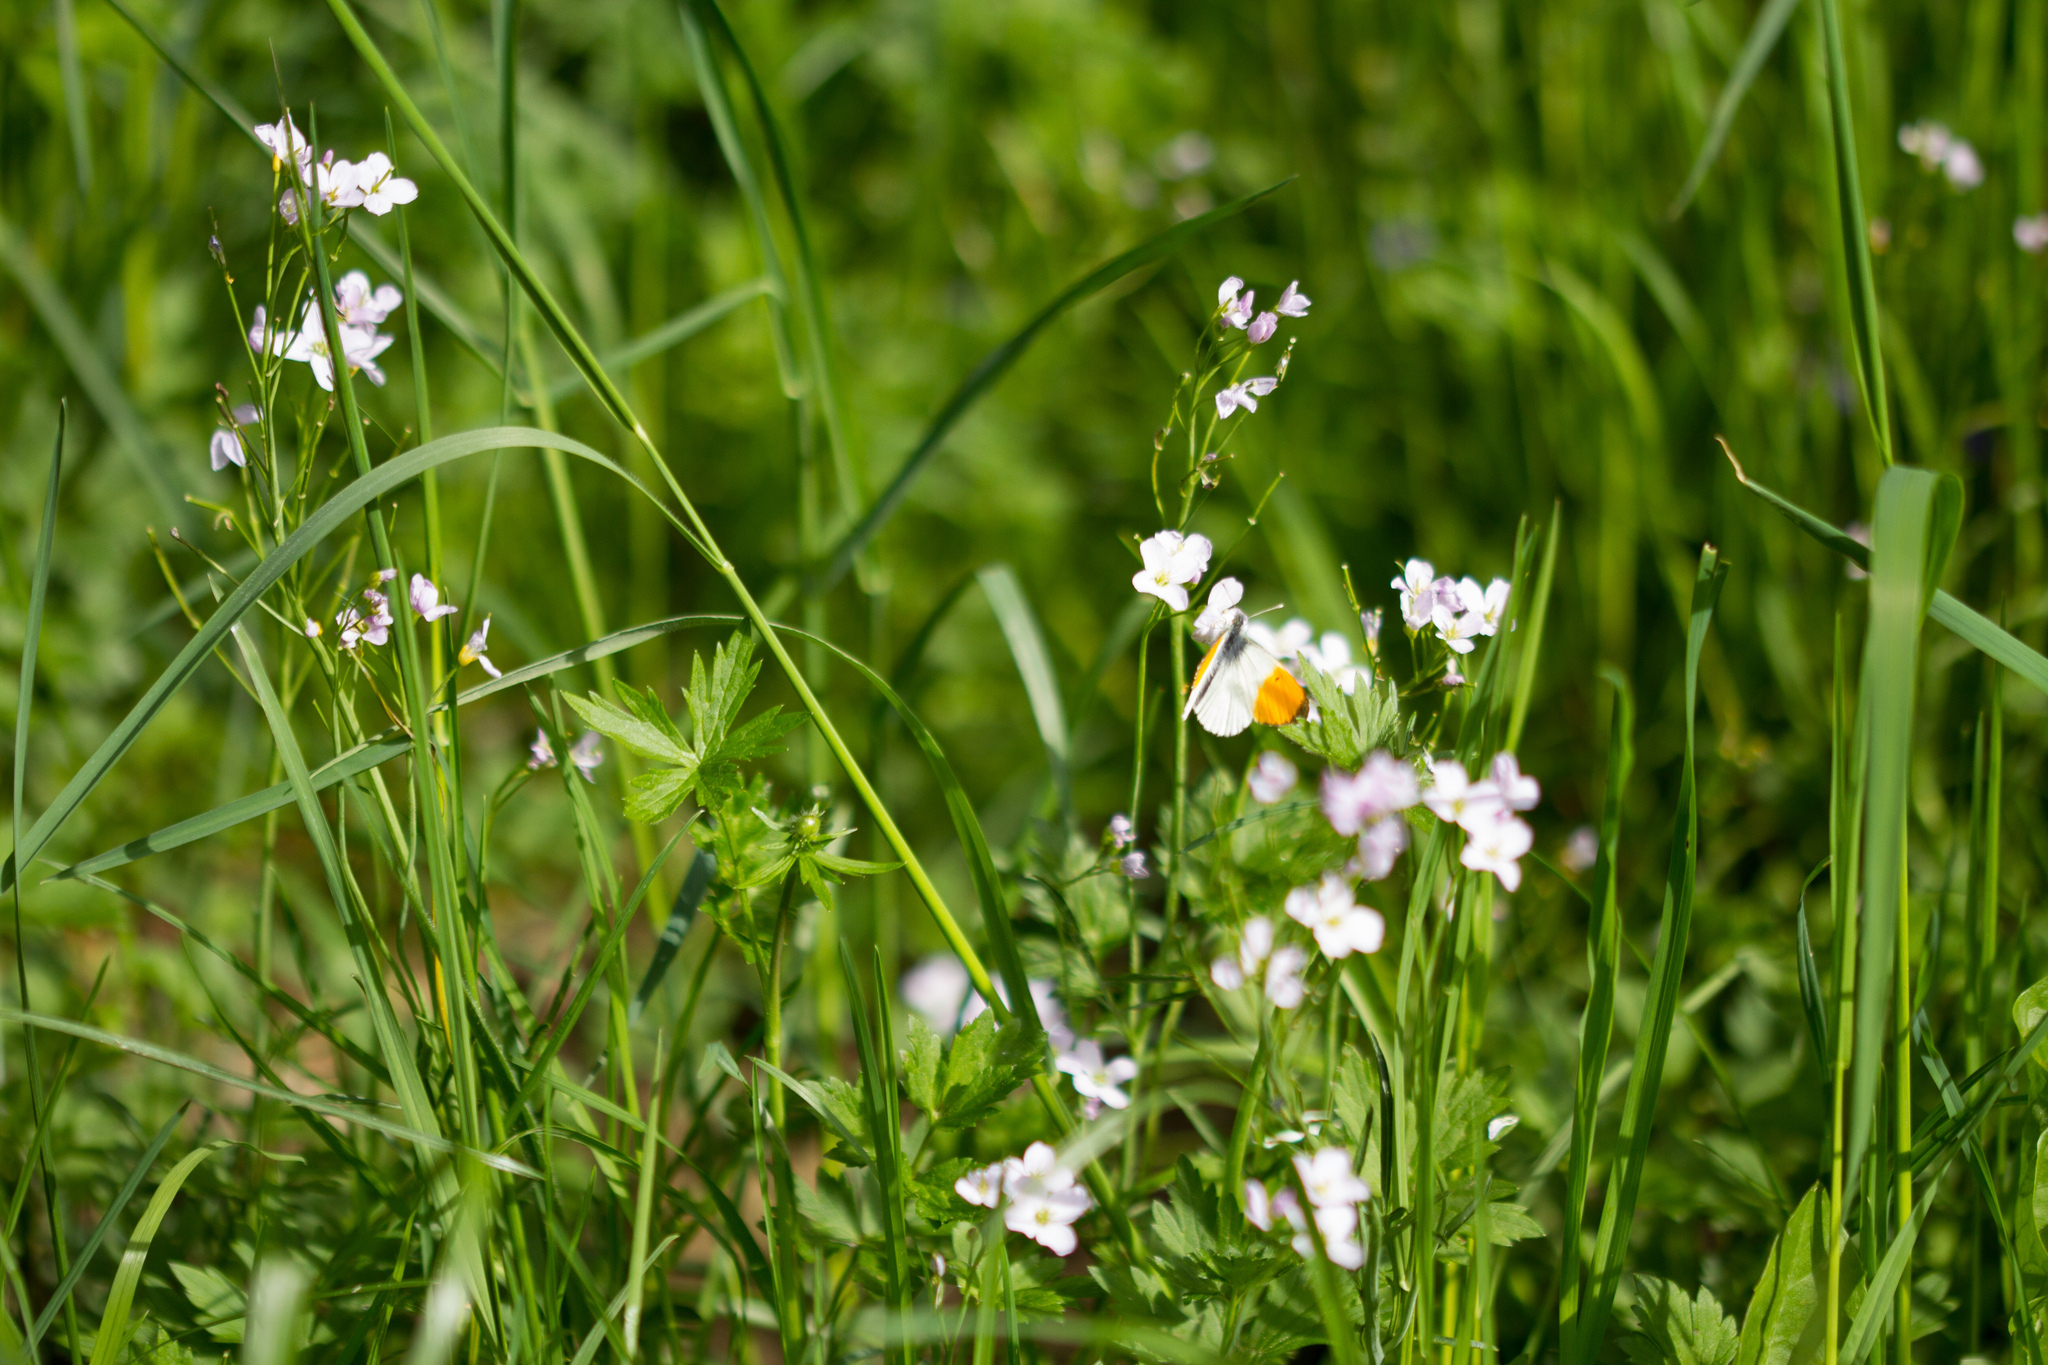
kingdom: Plantae
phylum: Tracheophyta
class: Magnoliopsida
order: Brassicales
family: Brassicaceae
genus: Cardamine
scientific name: Cardamine pratensis
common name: Cuckoo flower
